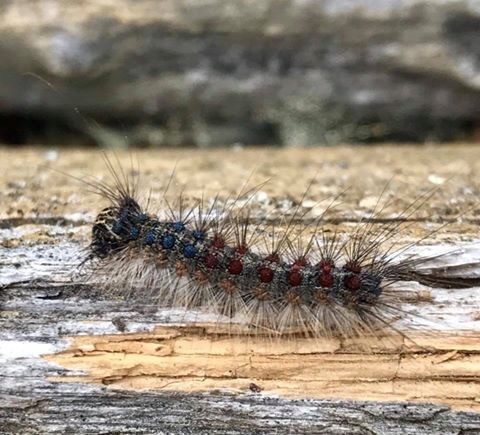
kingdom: Animalia
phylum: Arthropoda
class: Insecta
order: Lepidoptera
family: Erebidae
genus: Lymantria
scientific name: Lymantria dispar
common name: Gypsy moth
